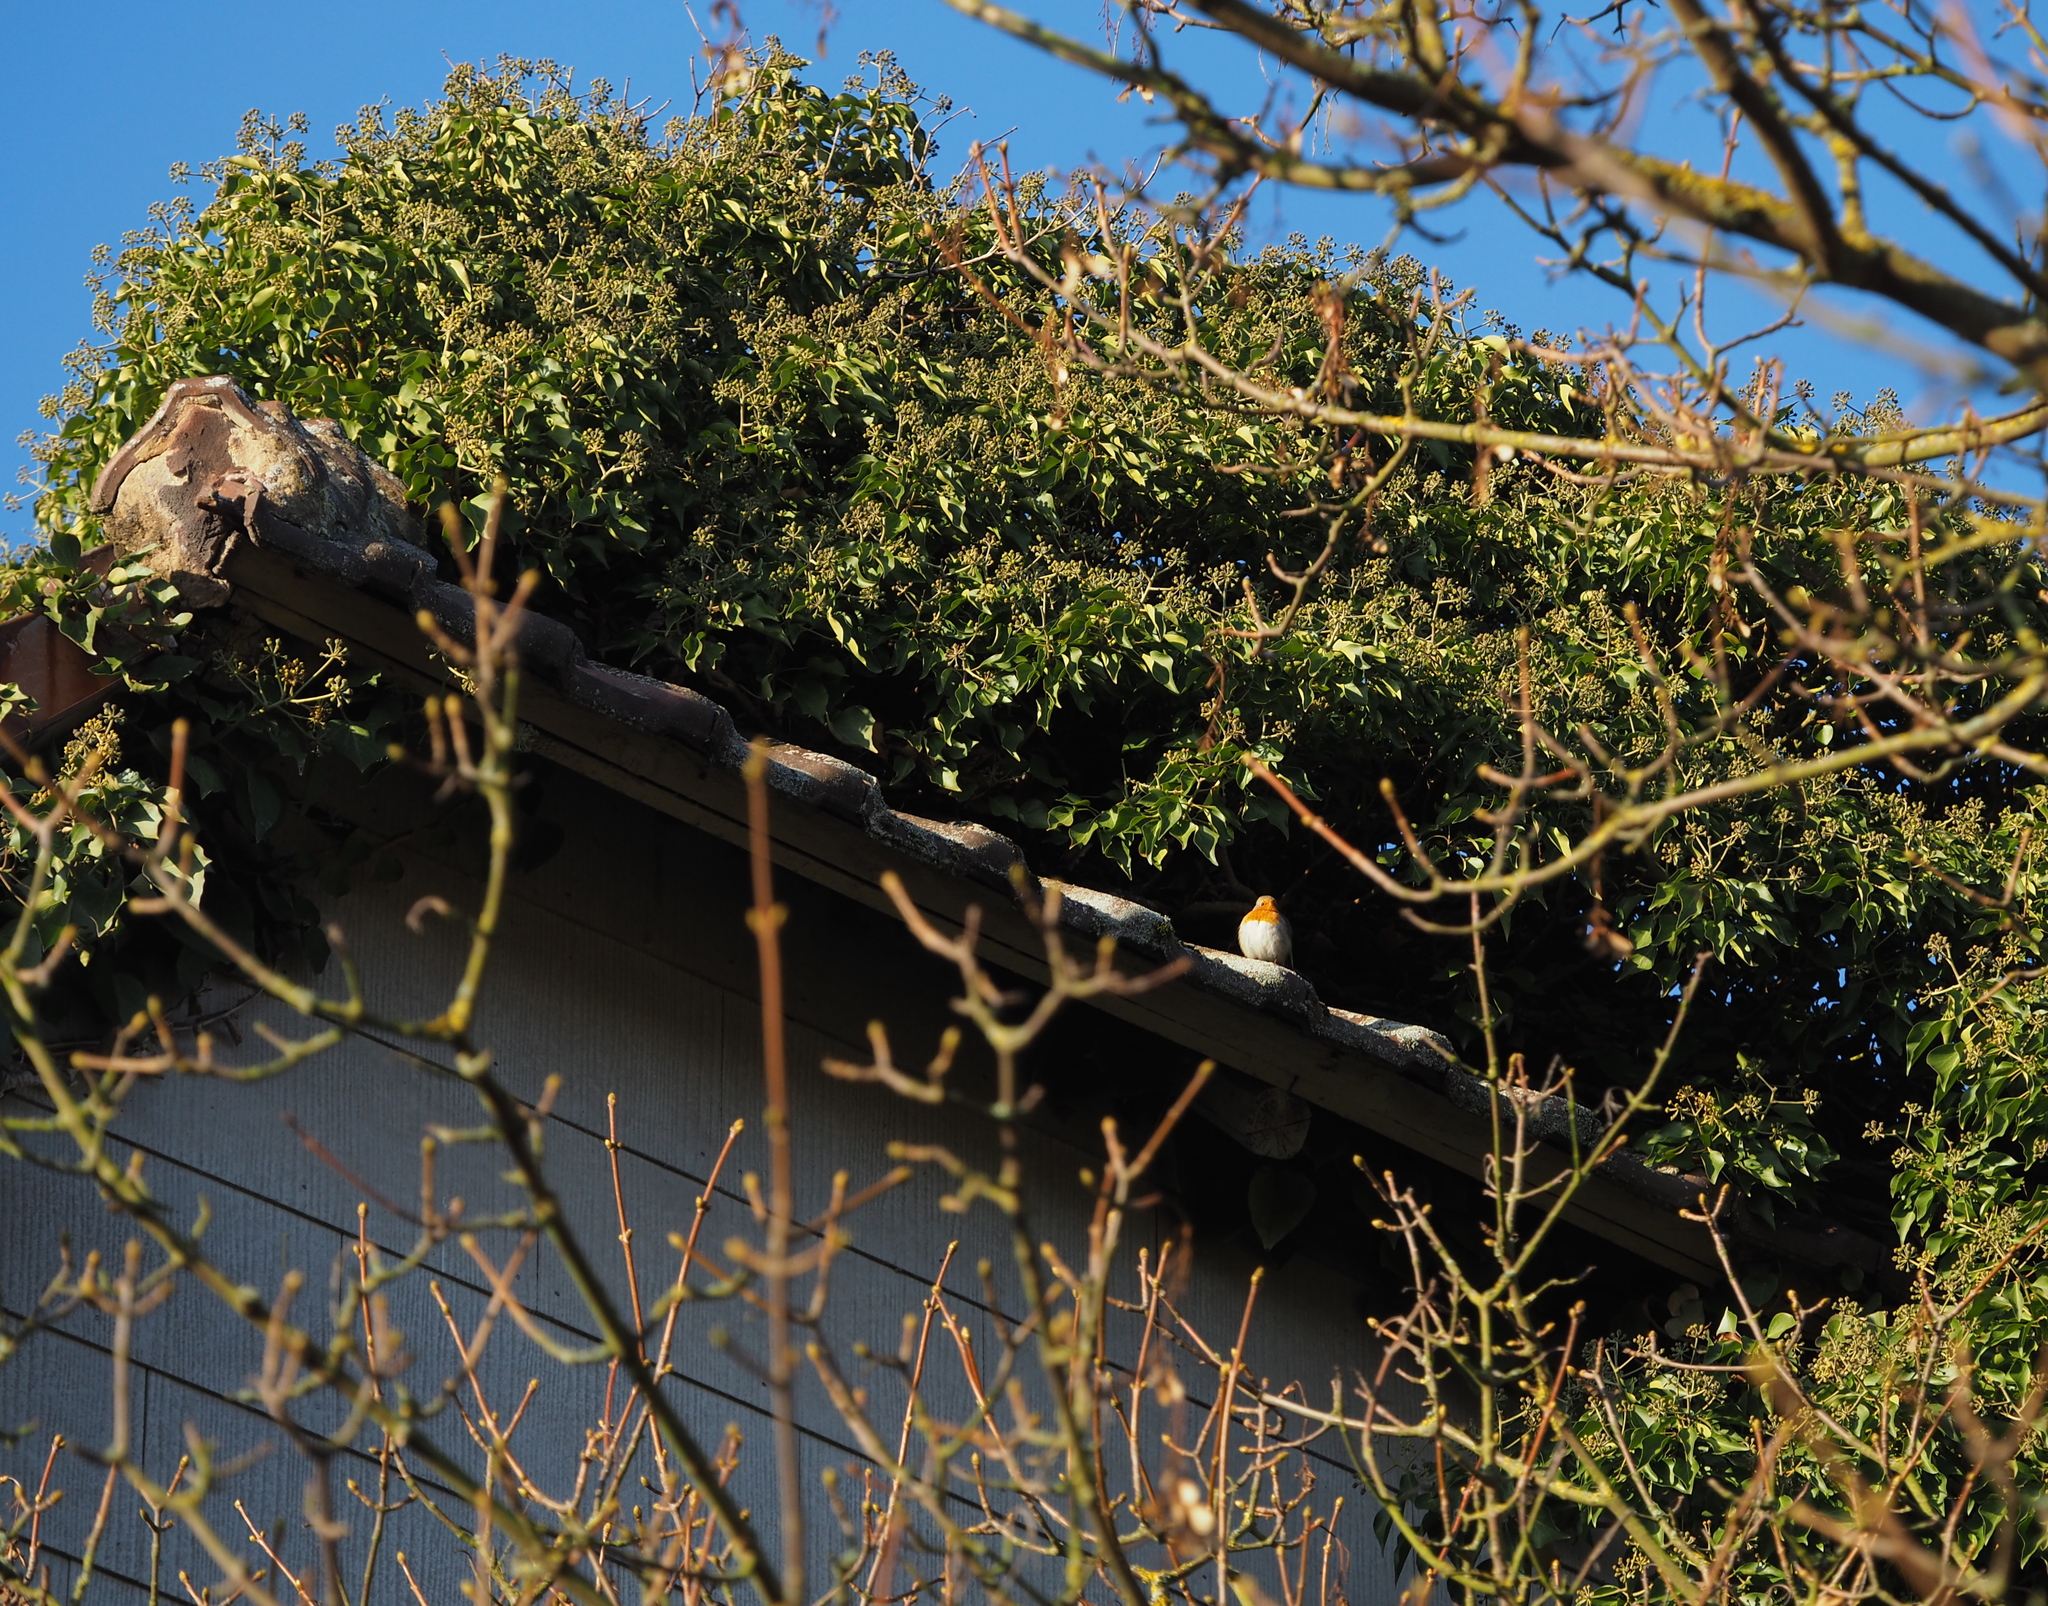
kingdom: Animalia
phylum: Chordata
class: Aves
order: Passeriformes
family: Muscicapidae
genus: Erithacus
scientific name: Erithacus rubecula
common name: European robin
